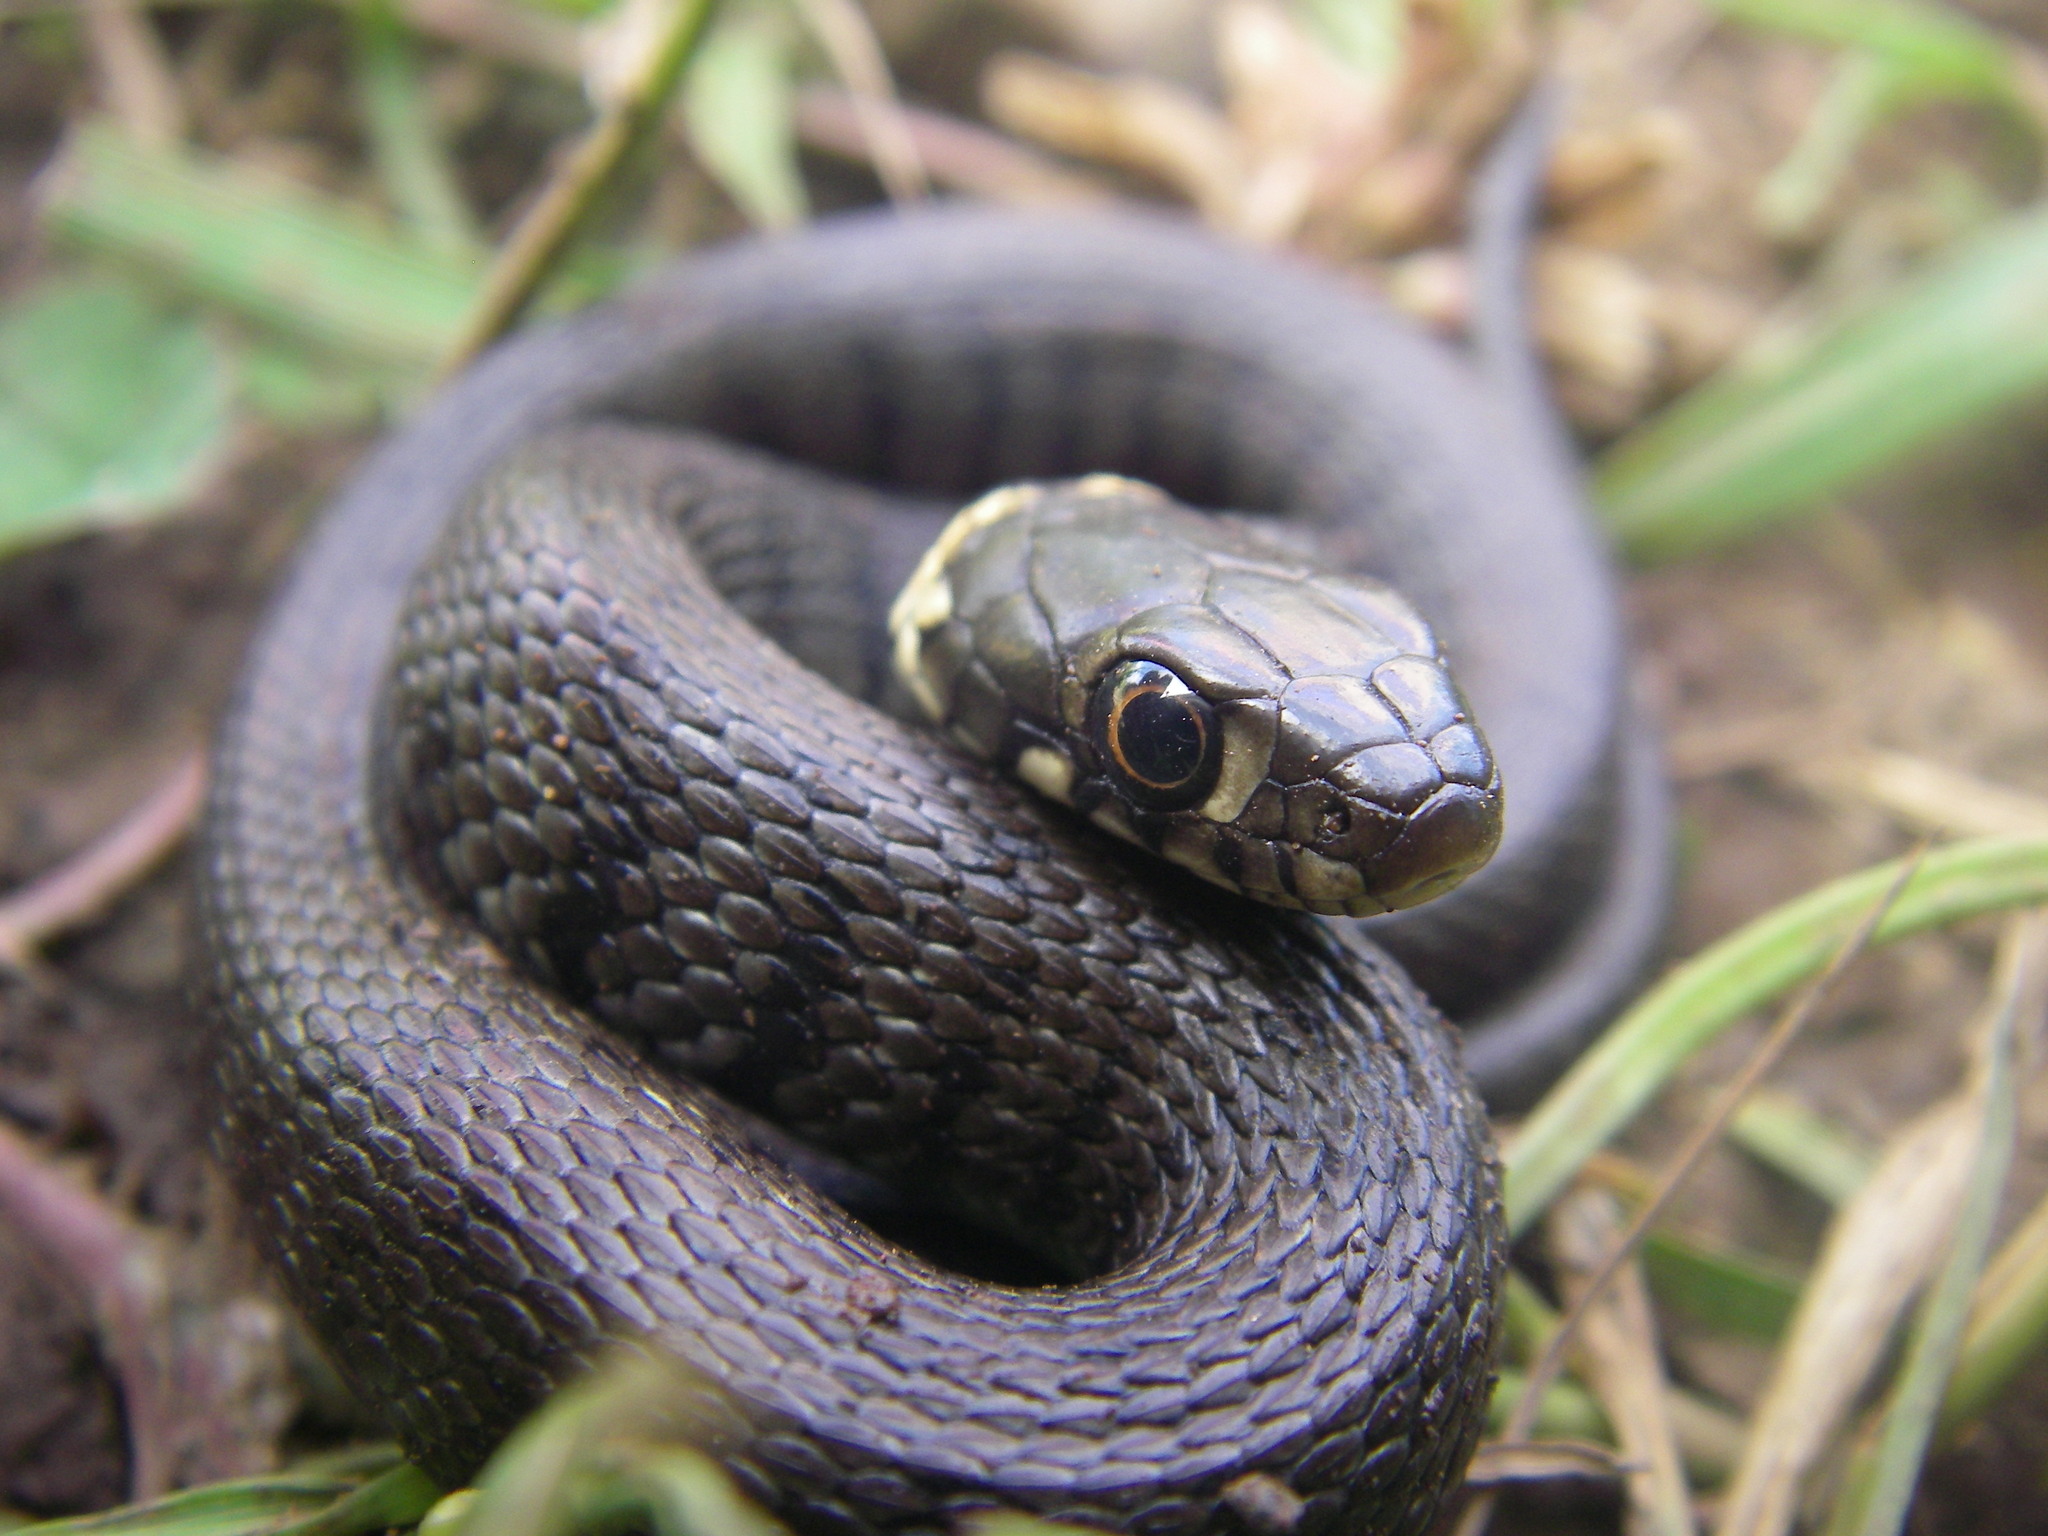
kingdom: Animalia
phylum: Chordata
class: Squamata
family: Colubridae
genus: Natrix
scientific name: Natrix helvetica
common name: Banded grass snake
